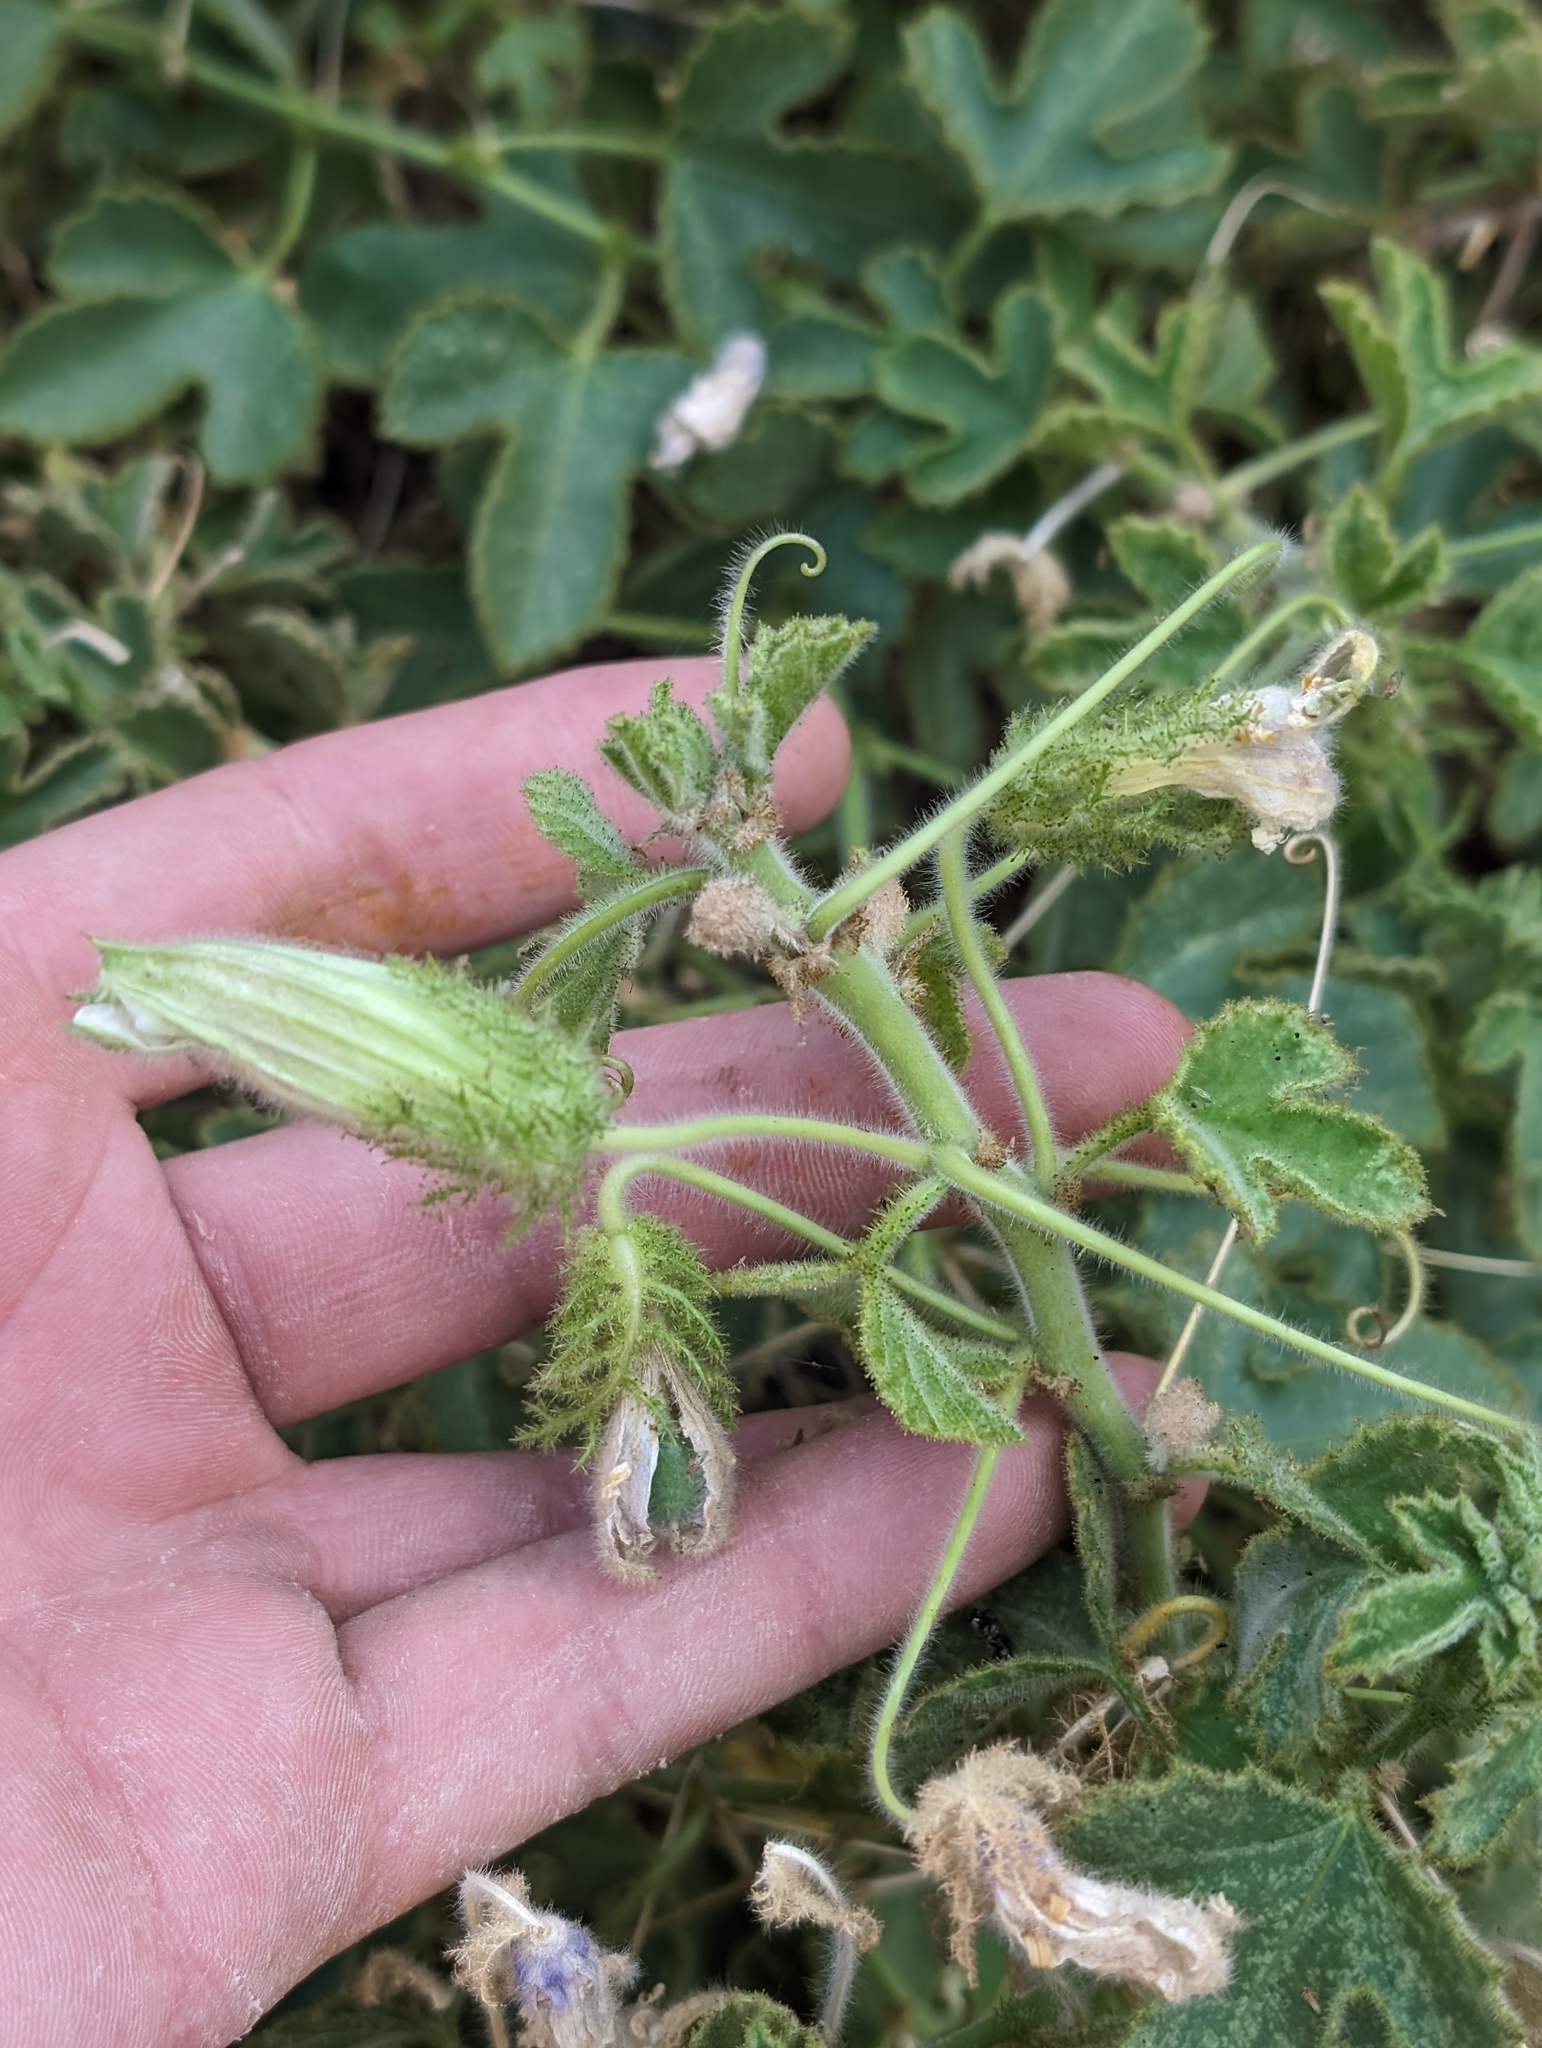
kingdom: Plantae
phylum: Tracheophyta
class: Magnoliopsida
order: Malpighiales
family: Passifloraceae
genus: Passiflora
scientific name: Passiflora palmeri
